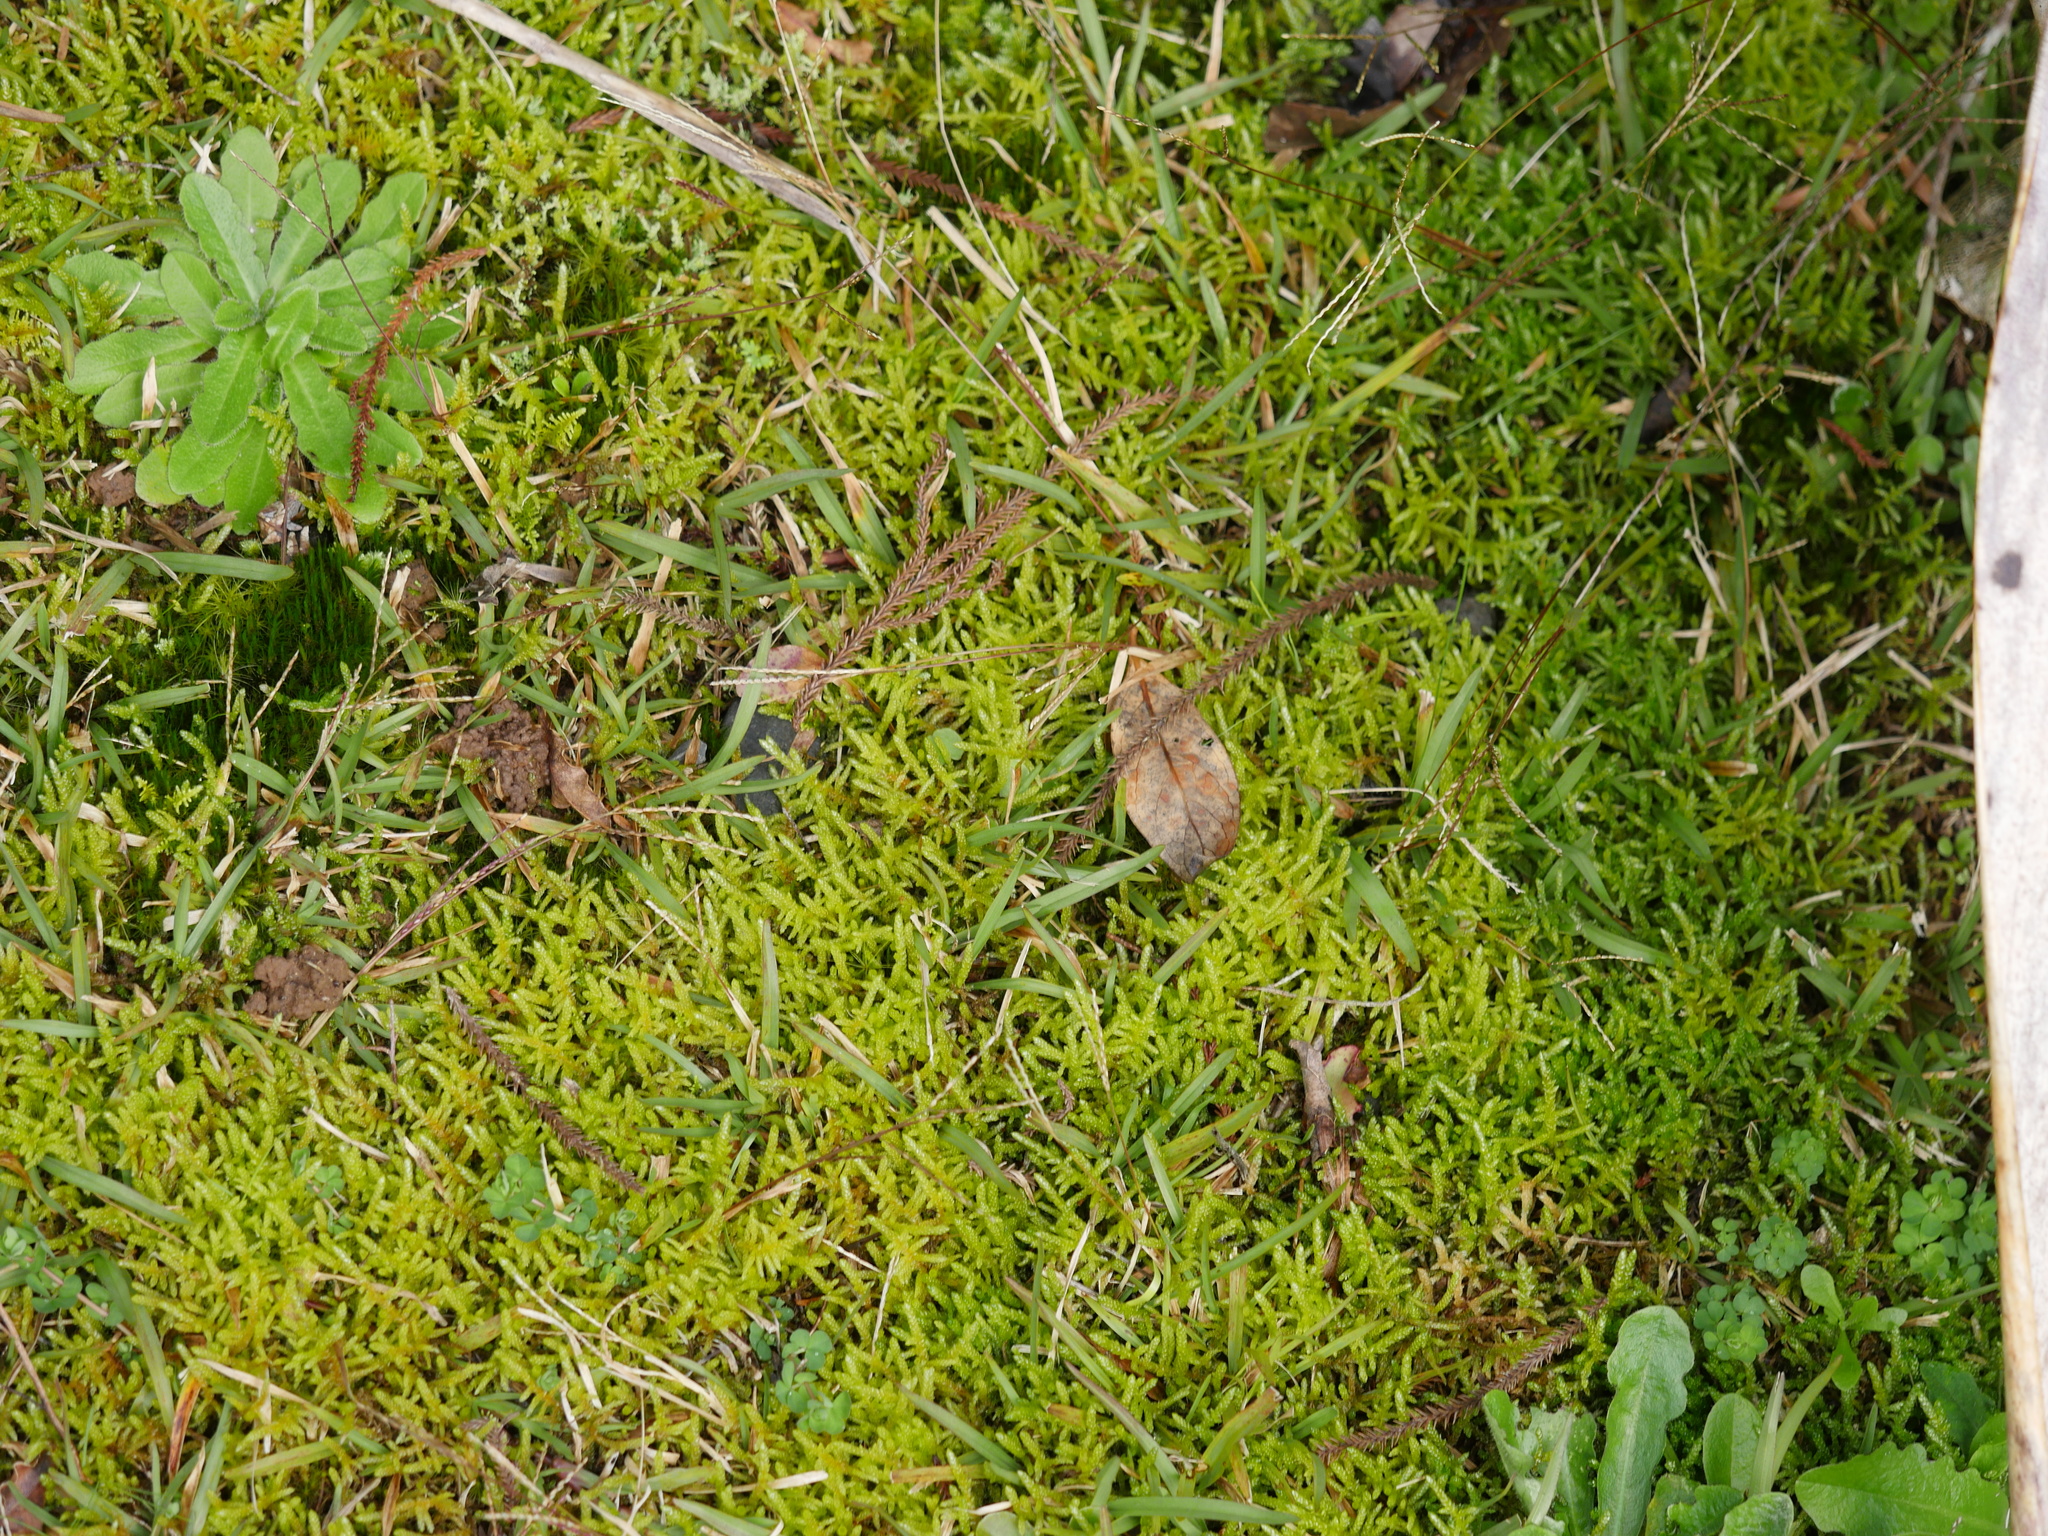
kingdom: Plantae
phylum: Bryophyta
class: Bryopsida
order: Hypnales
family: Brachytheciaceae
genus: Pseudoscleropodium
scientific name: Pseudoscleropodium purum
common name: Neat feather-moss
